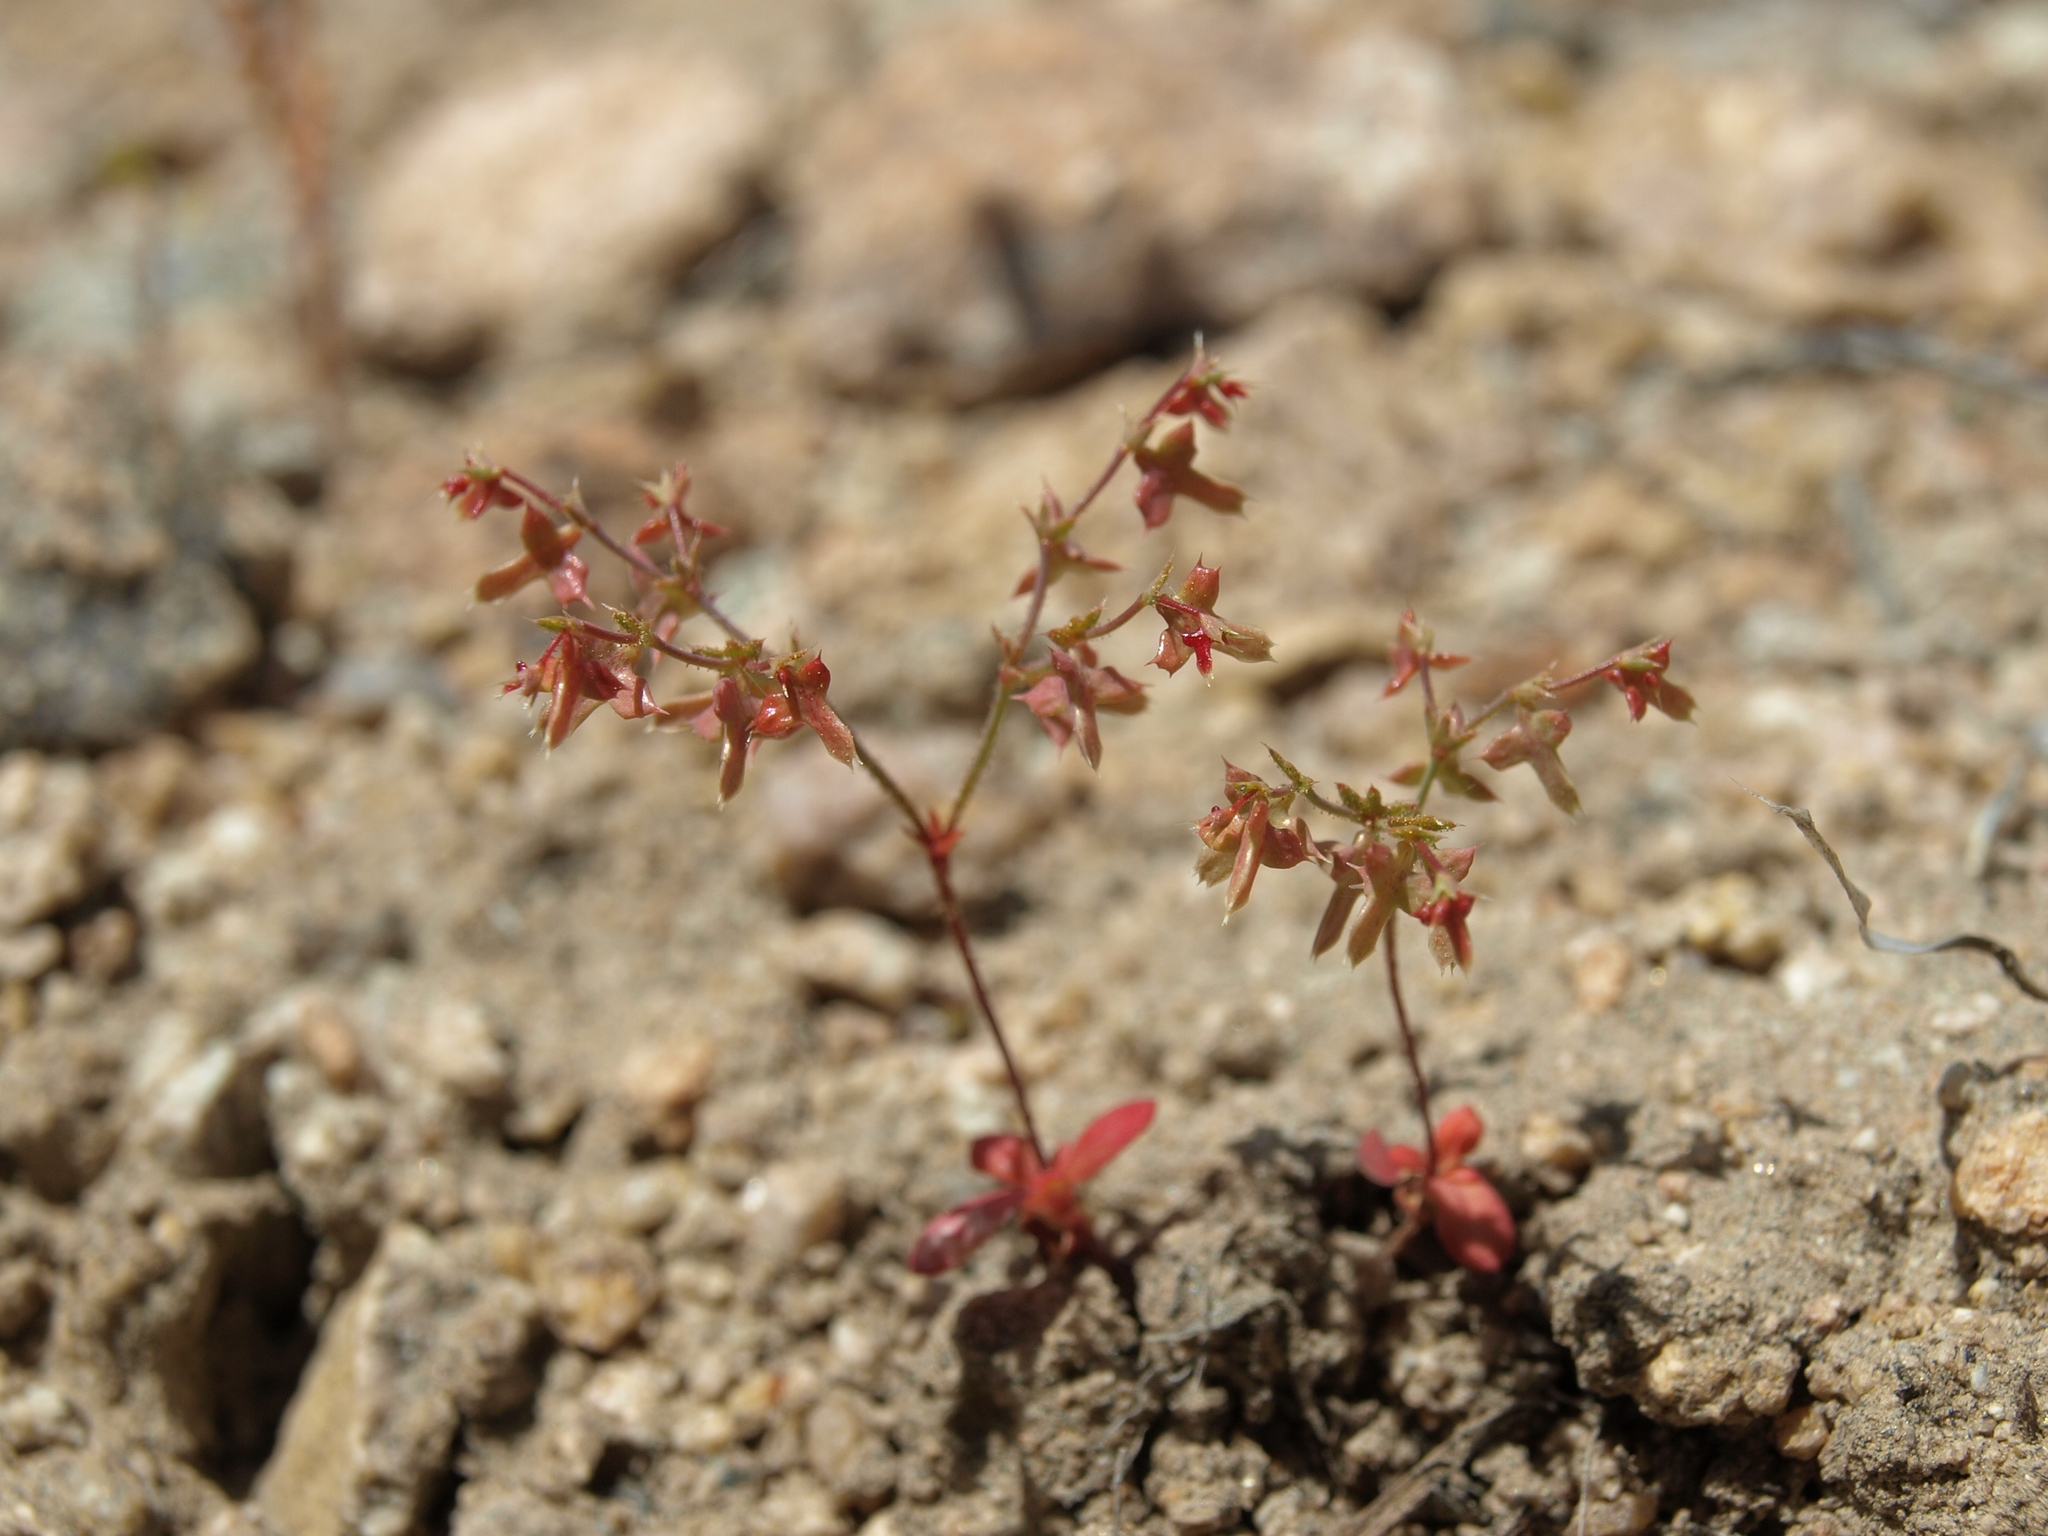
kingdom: Plantae
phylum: Tracheophyta
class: Magnoliopsida
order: Caryophyllales
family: Polygonaceae
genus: Centrostegia
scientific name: Centrostegia thurberi
